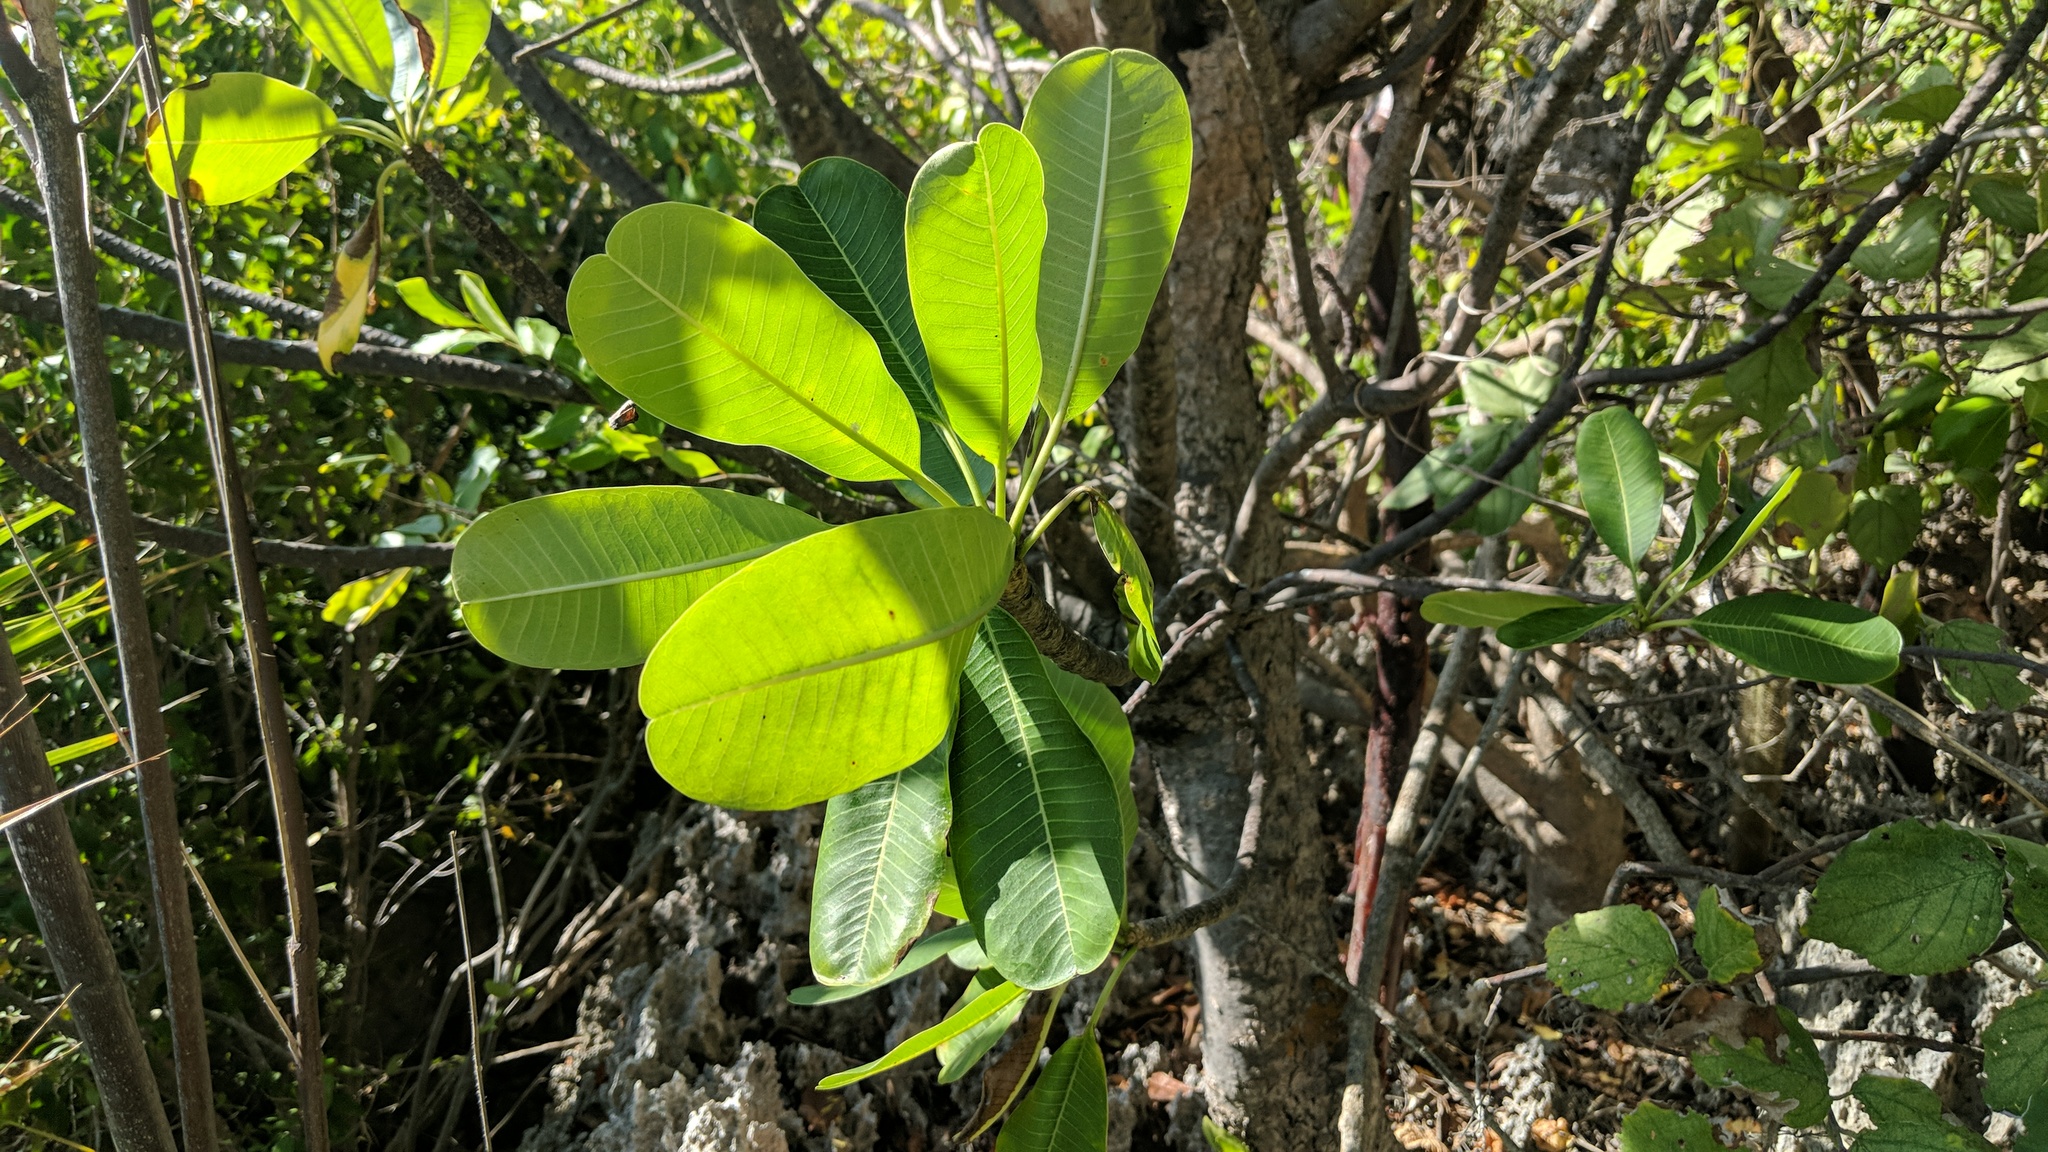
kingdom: Plantae
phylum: Tracheophyta
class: Magnoliopsida
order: Gentianales
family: Apocynaceae
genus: Plumeria
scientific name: Plumeria obtusa
